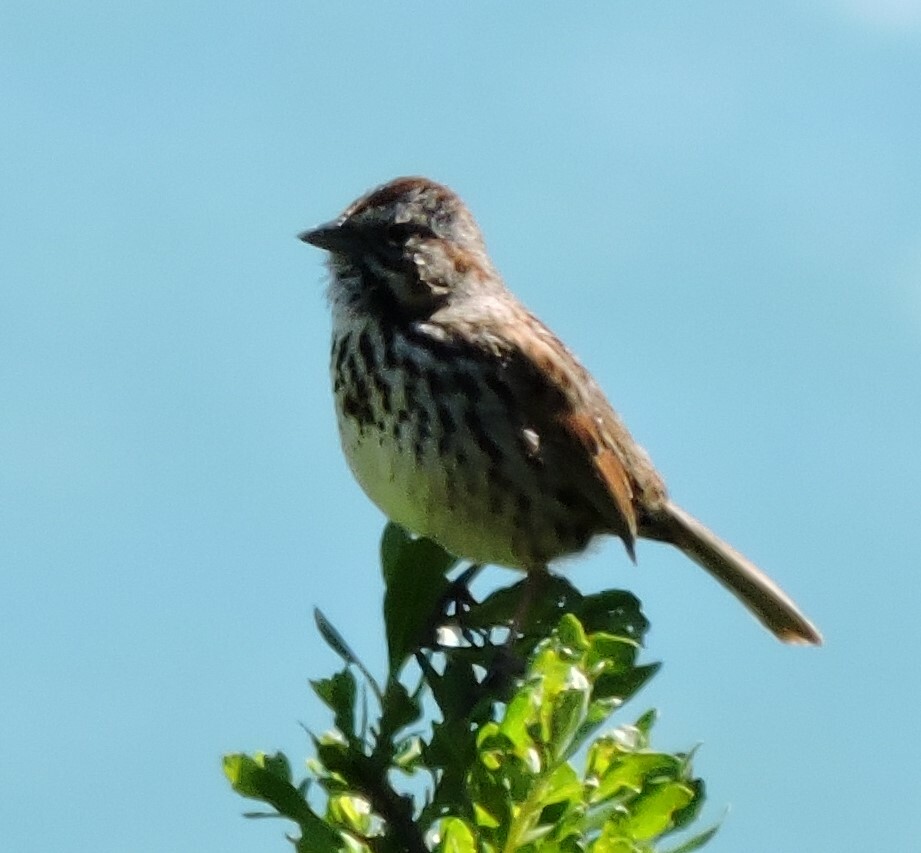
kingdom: Animalia
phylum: Chordata
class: Aves
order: Passeriformes
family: Passerellidae
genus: Melospiza
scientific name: Melospiza melodia
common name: Song sparrow
